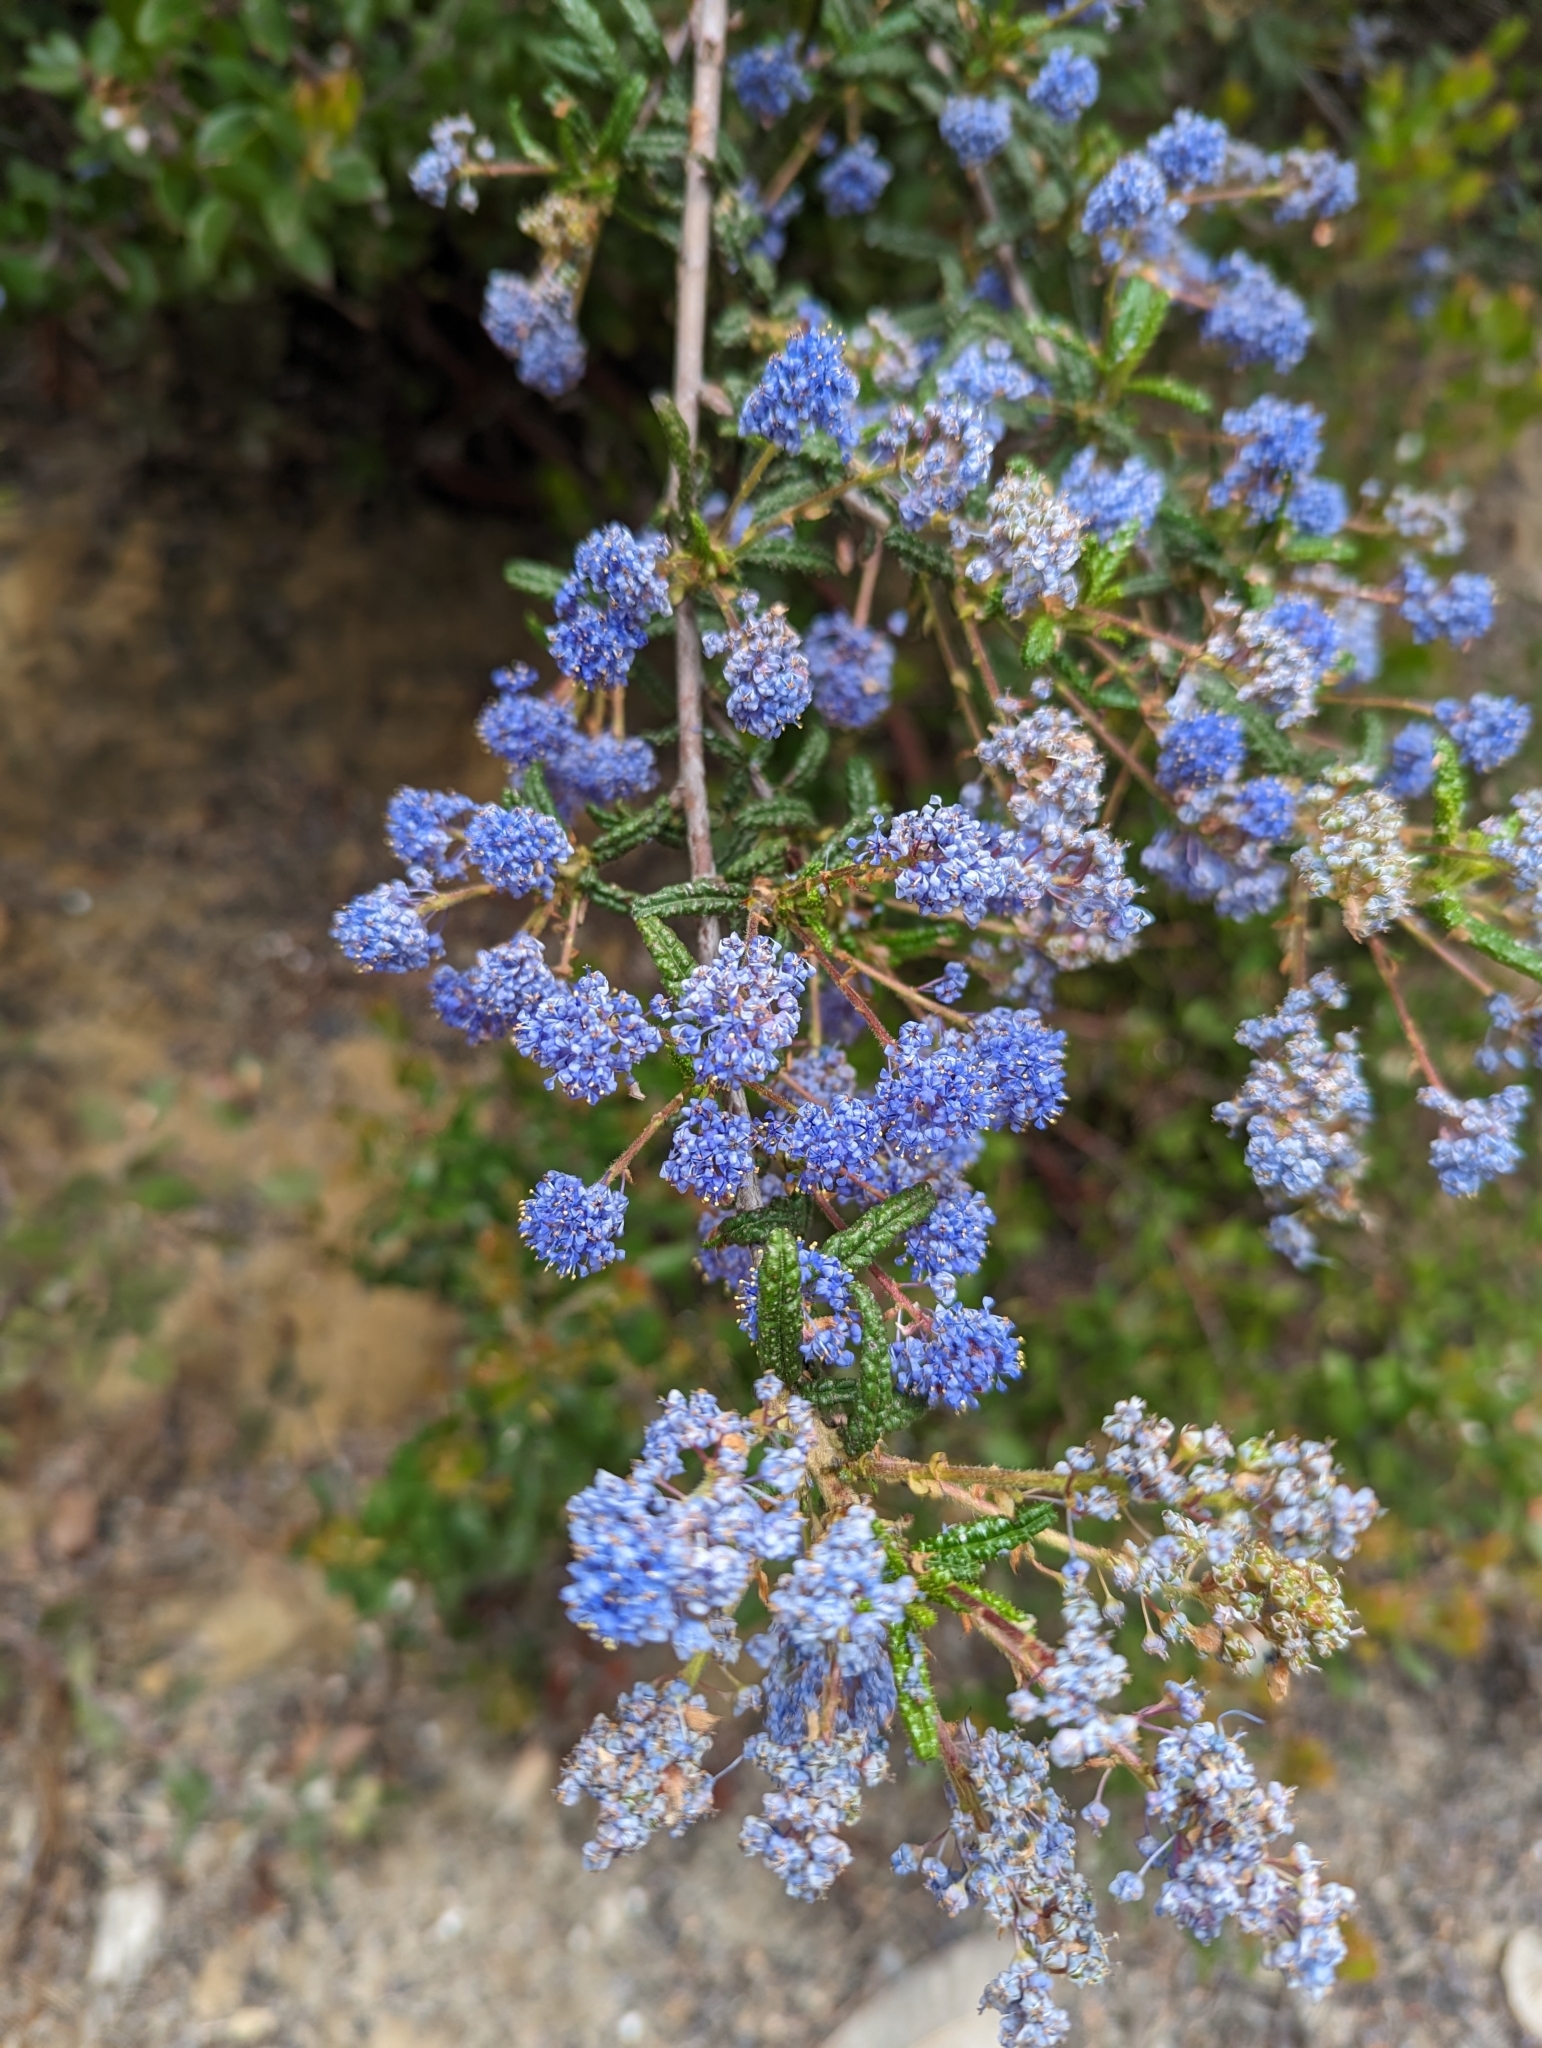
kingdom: Plantae
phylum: Tracheophyta
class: Magnoliopsida
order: Rosales
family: Rhamnaceae
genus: Ceanothus
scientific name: Ceanothus papillosus
